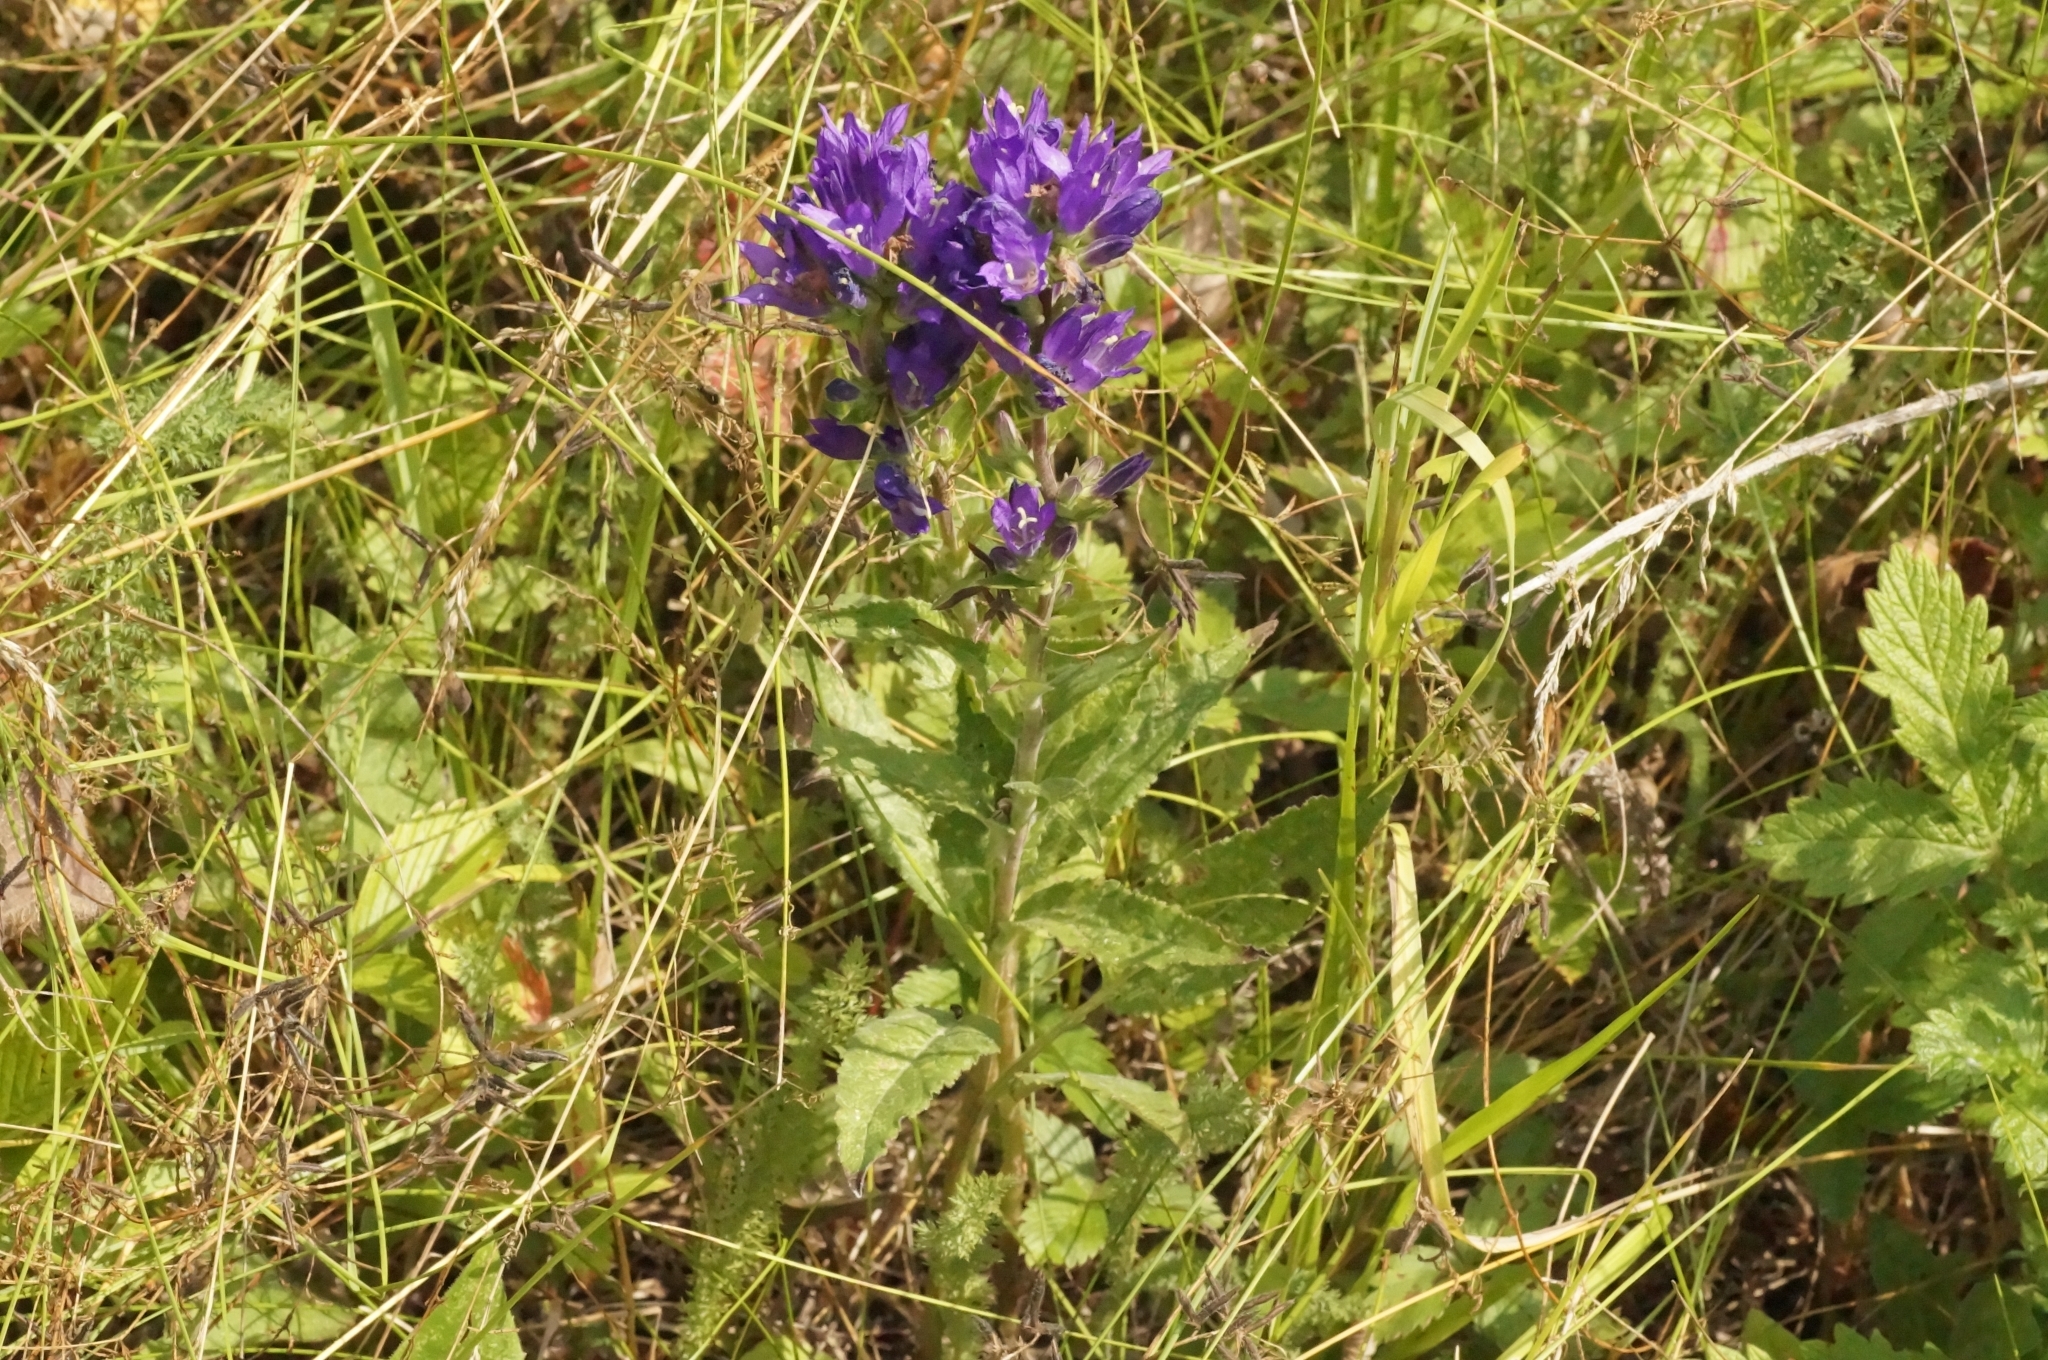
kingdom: Plantae
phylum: Tracheophyta
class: Magnoliopsida
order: Asterales
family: Campanulaceae
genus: Campanula
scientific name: Campanula glomerata
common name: Clustered bellflower
